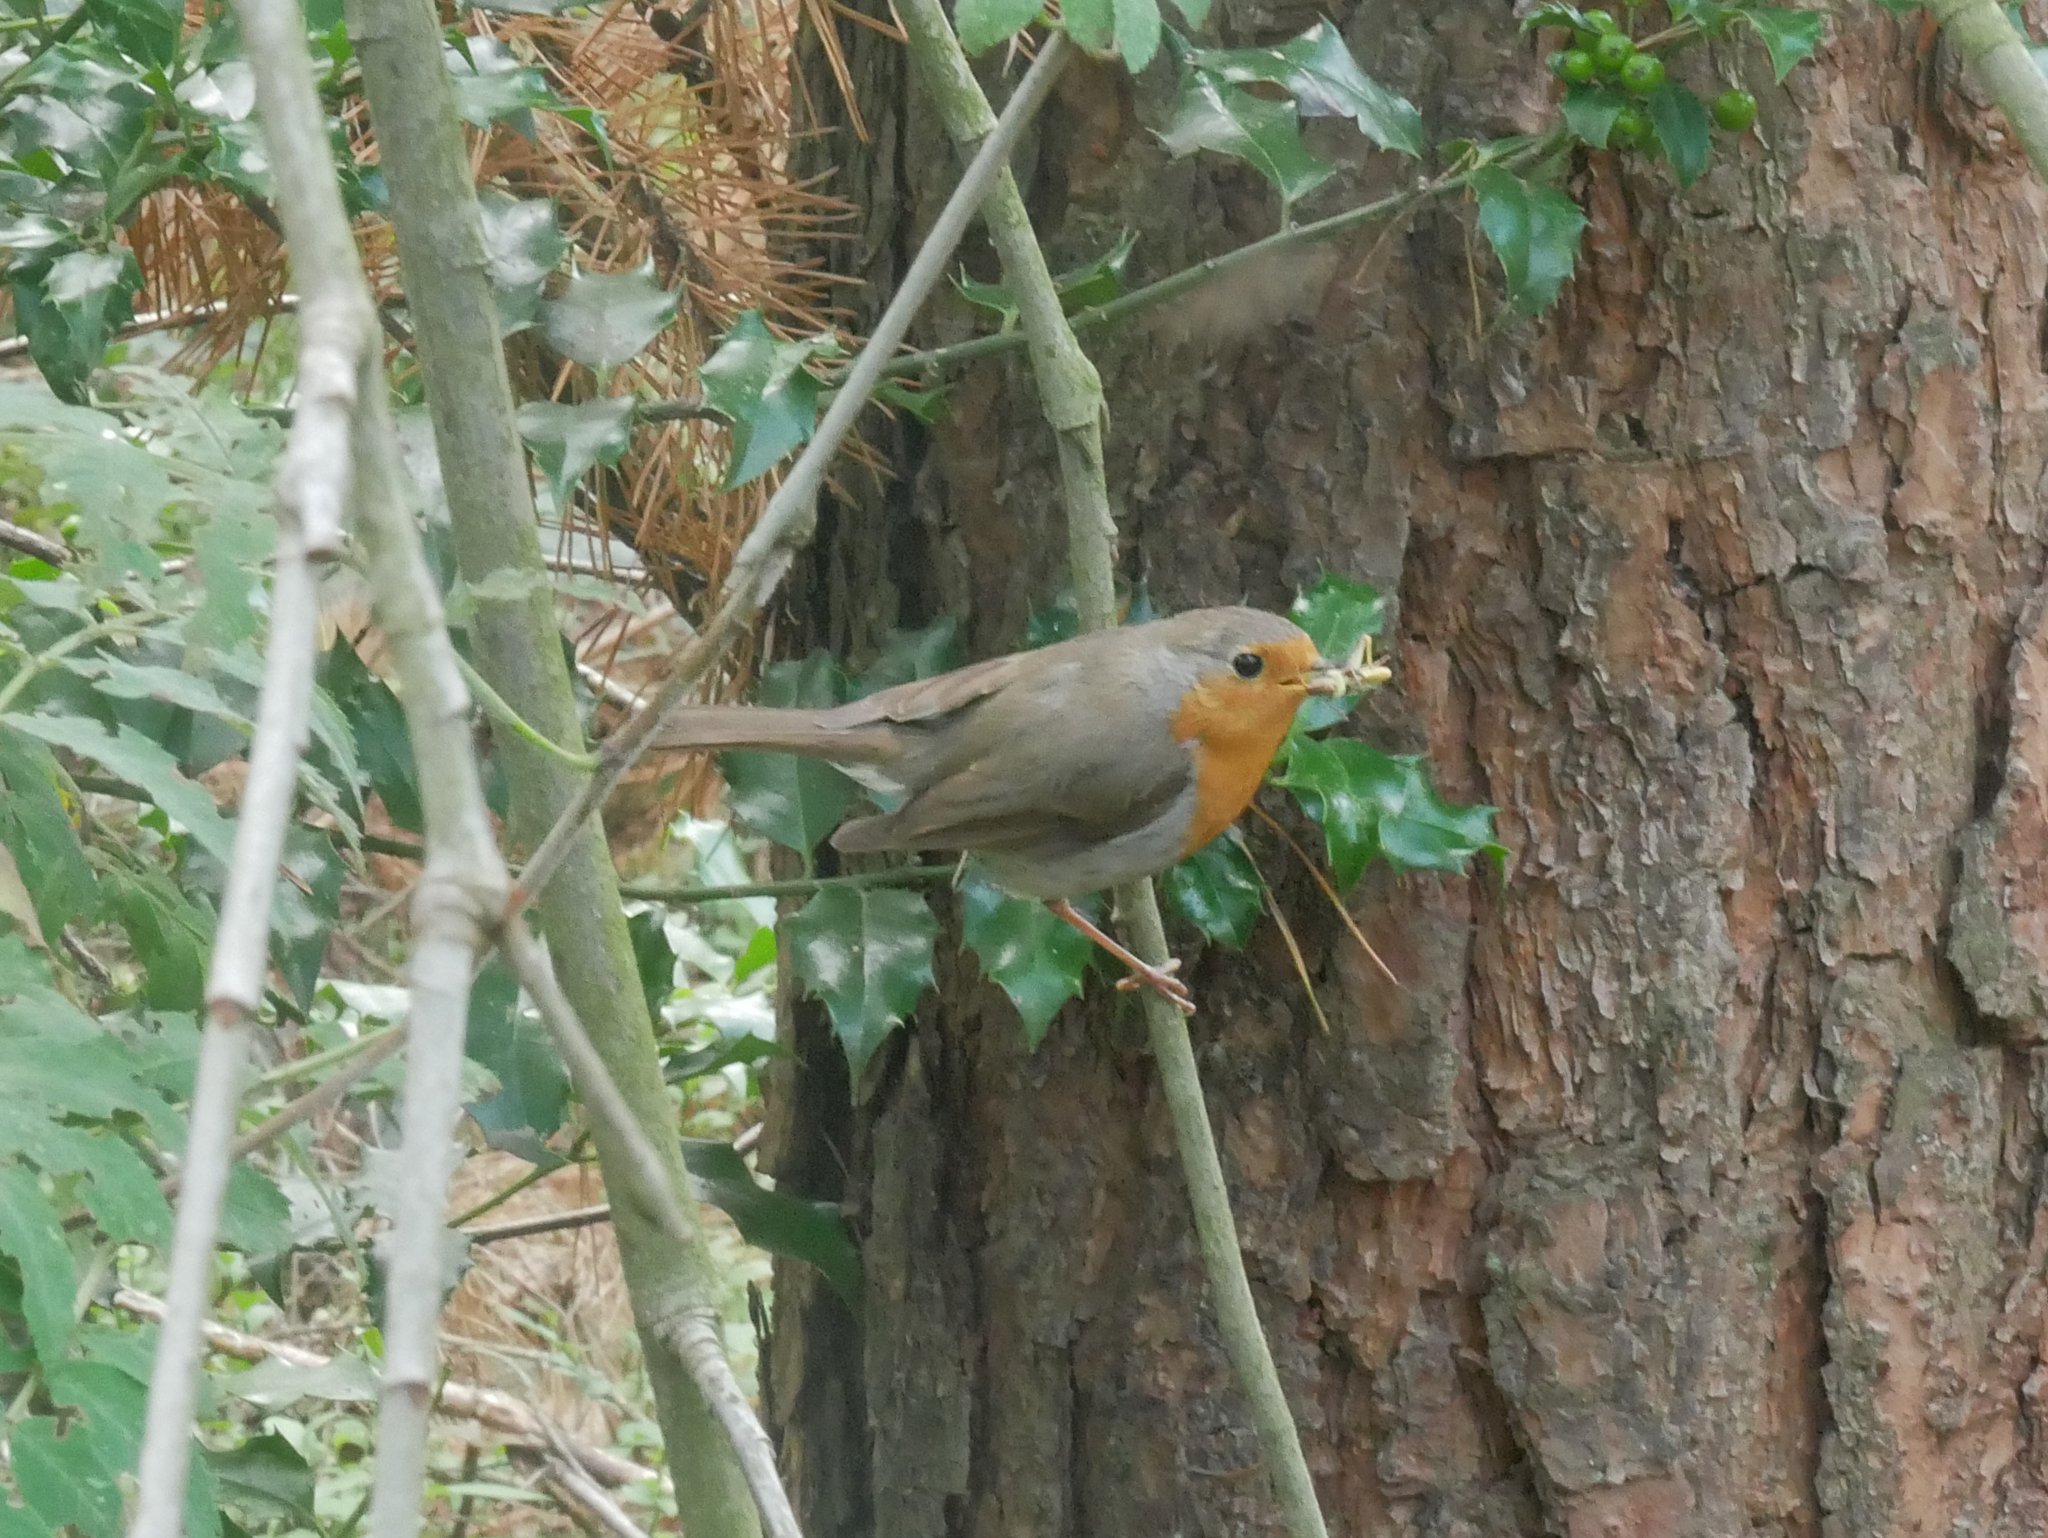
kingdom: Animalia
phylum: Chordata
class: Aves
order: Passeriformes
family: Muscicapidae
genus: Erithacus
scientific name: Erithacus rubecula
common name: European robin
